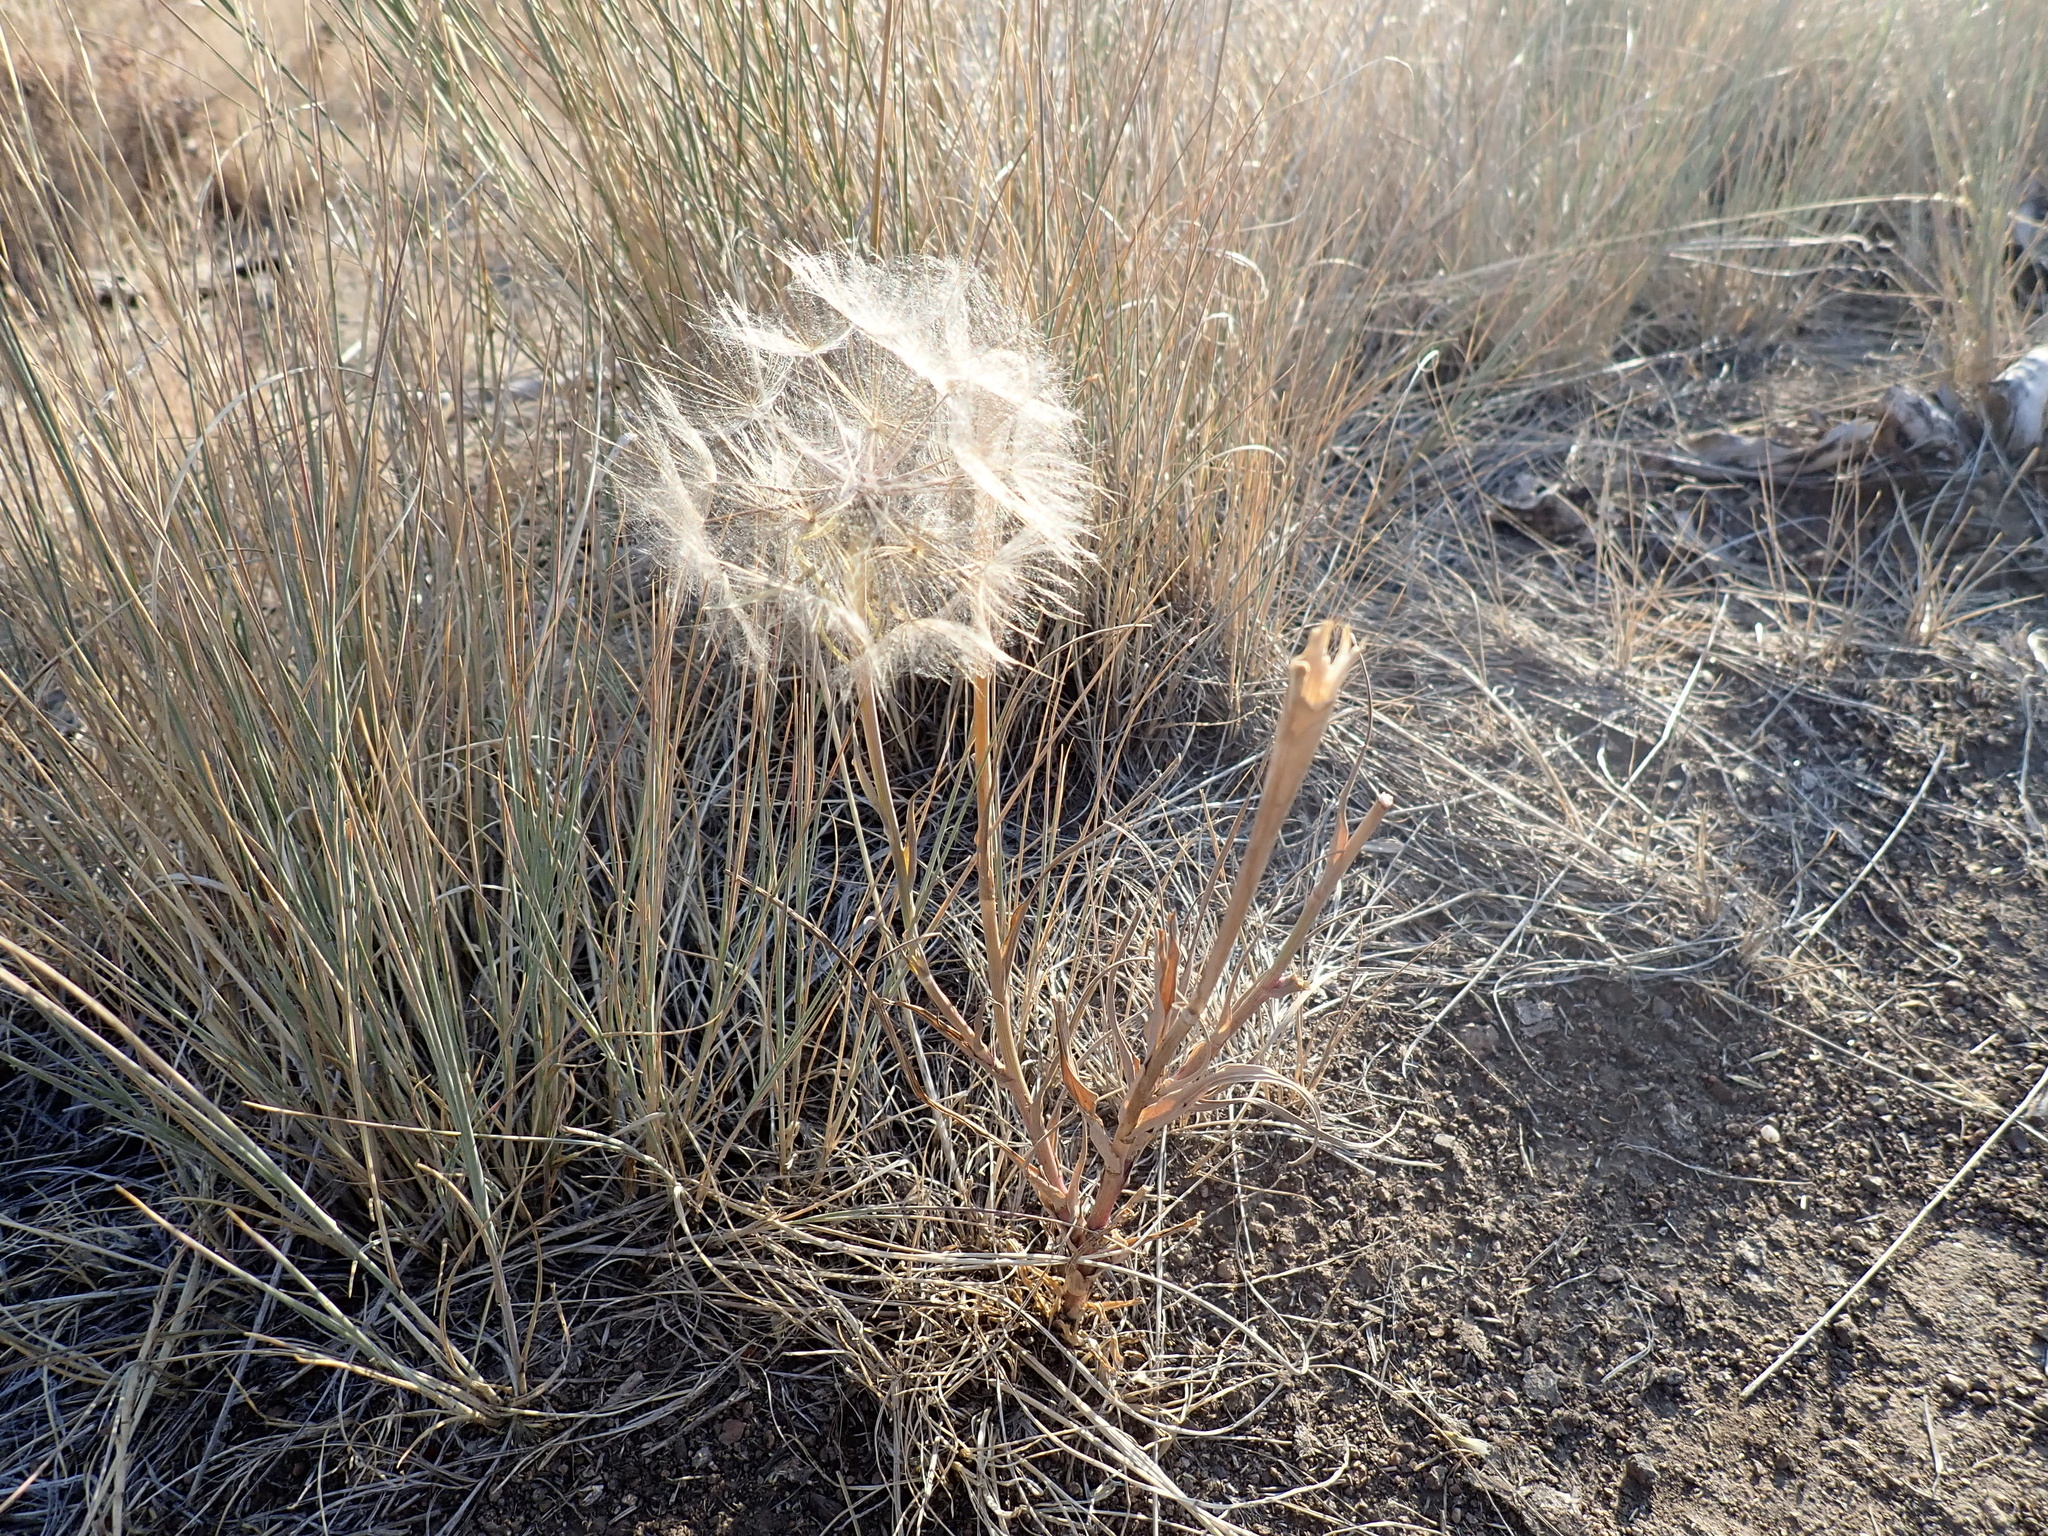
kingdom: Plantae
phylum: Tracheophyta
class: Magnoliopsida
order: Asterales
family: Asteraceae
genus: Tragopogon
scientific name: Tragopogon dubius
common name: Yellow salsify
